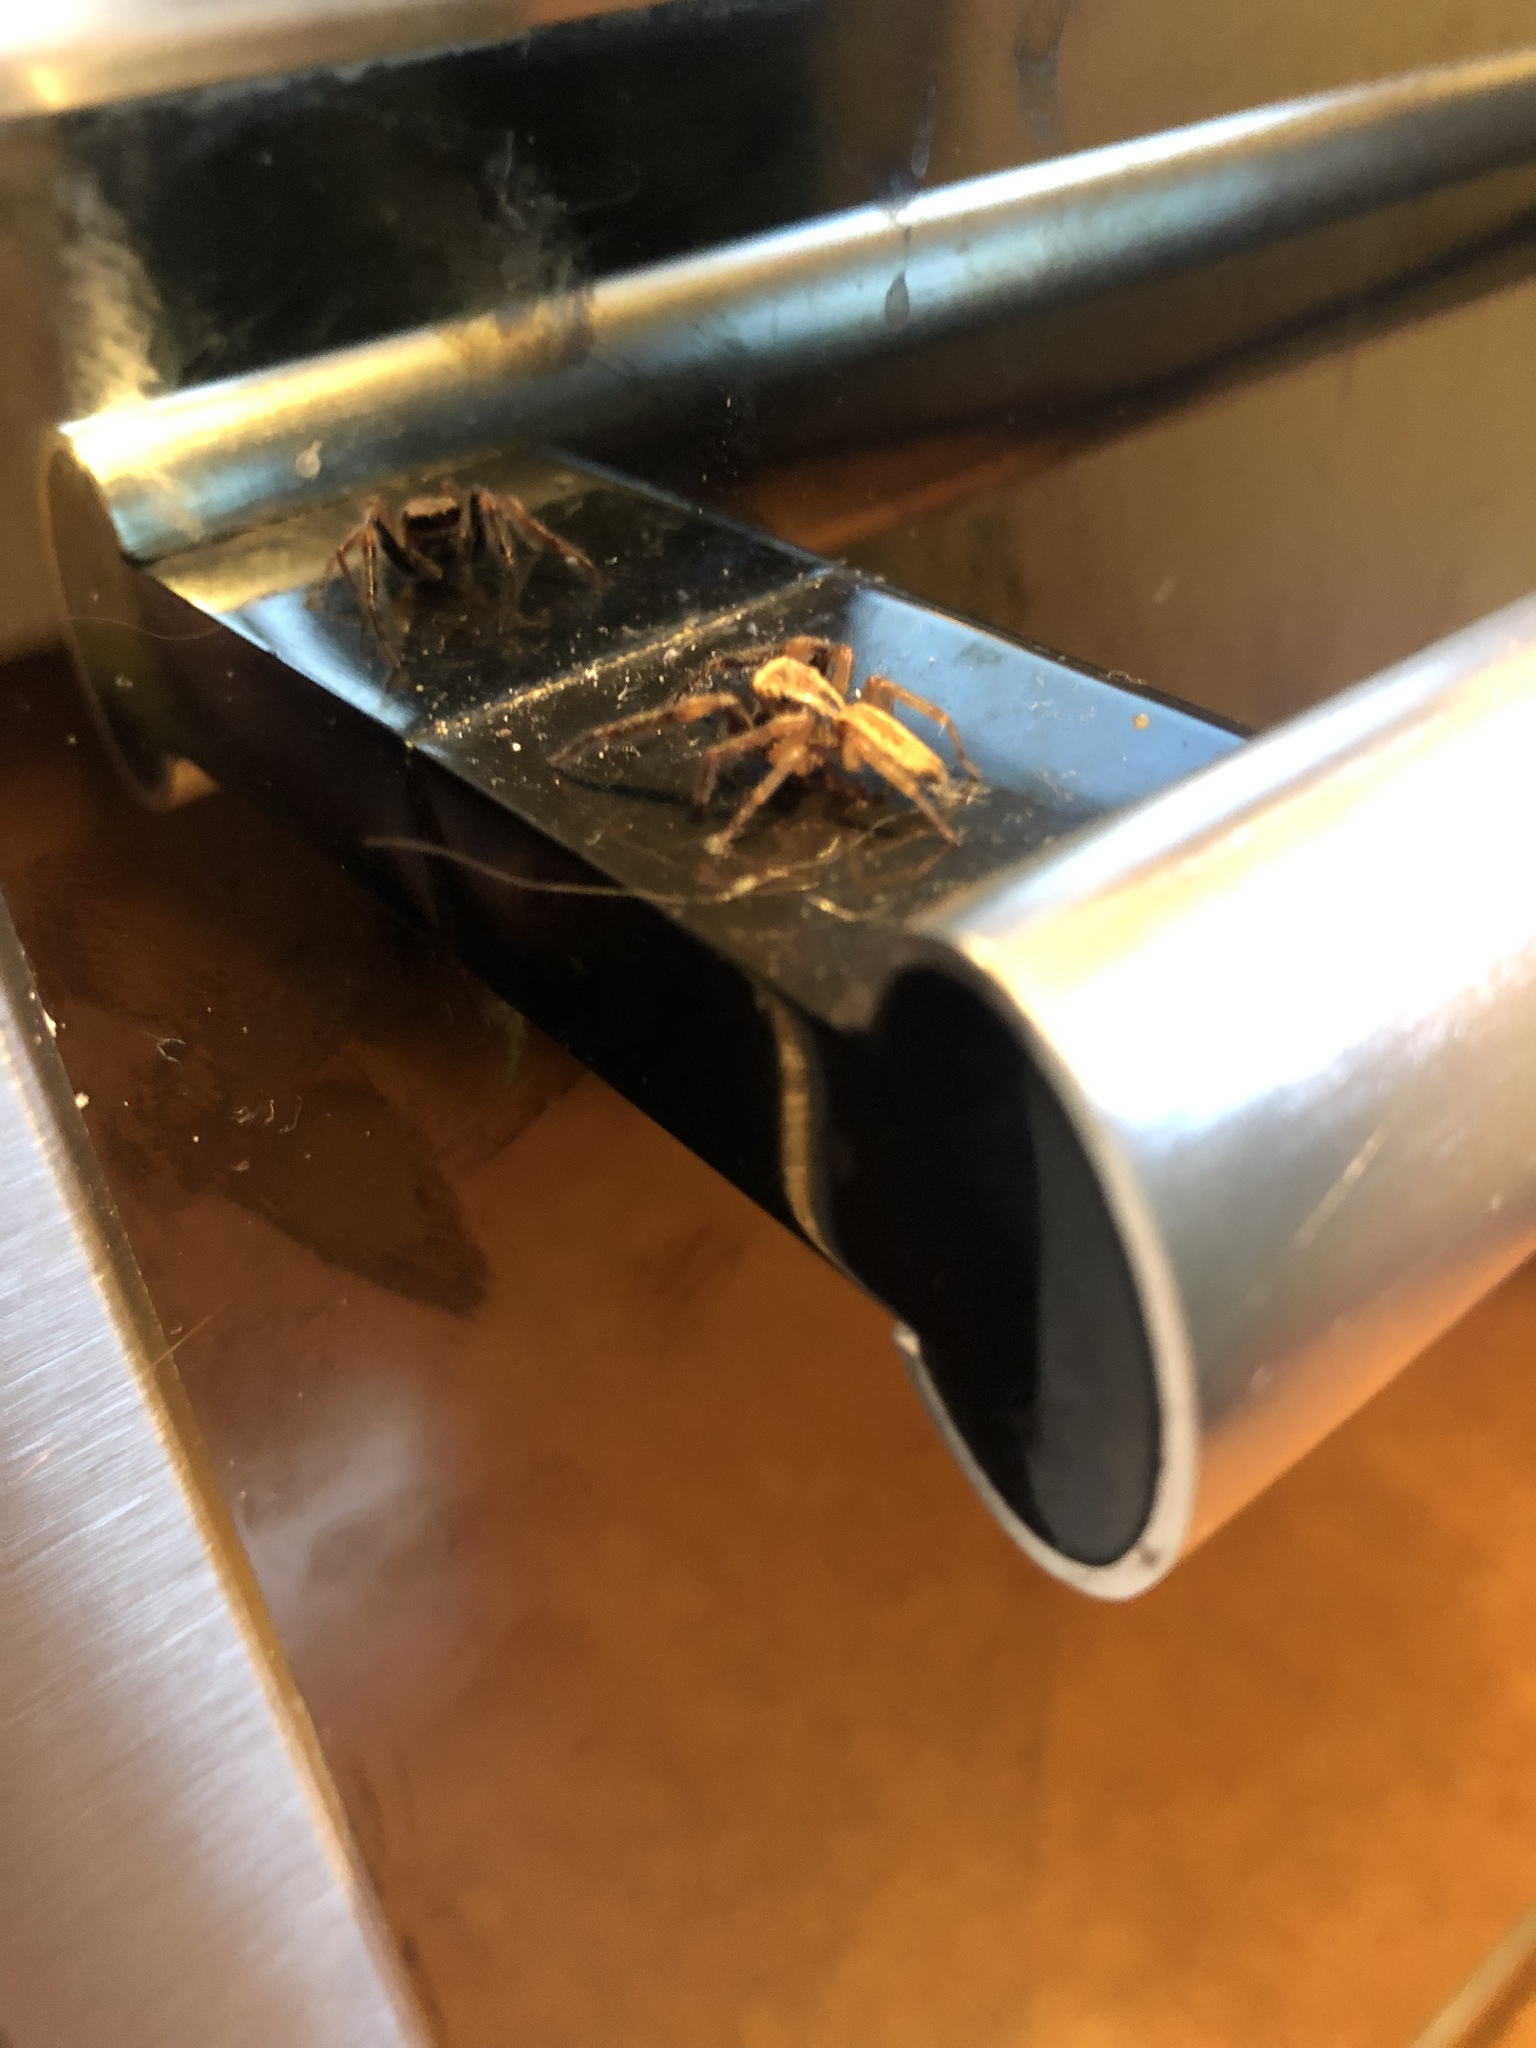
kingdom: Animalia
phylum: Arthropoda
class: Arachnida
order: Araneae
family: Salticidae
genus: Trite
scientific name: Trite auricoma
